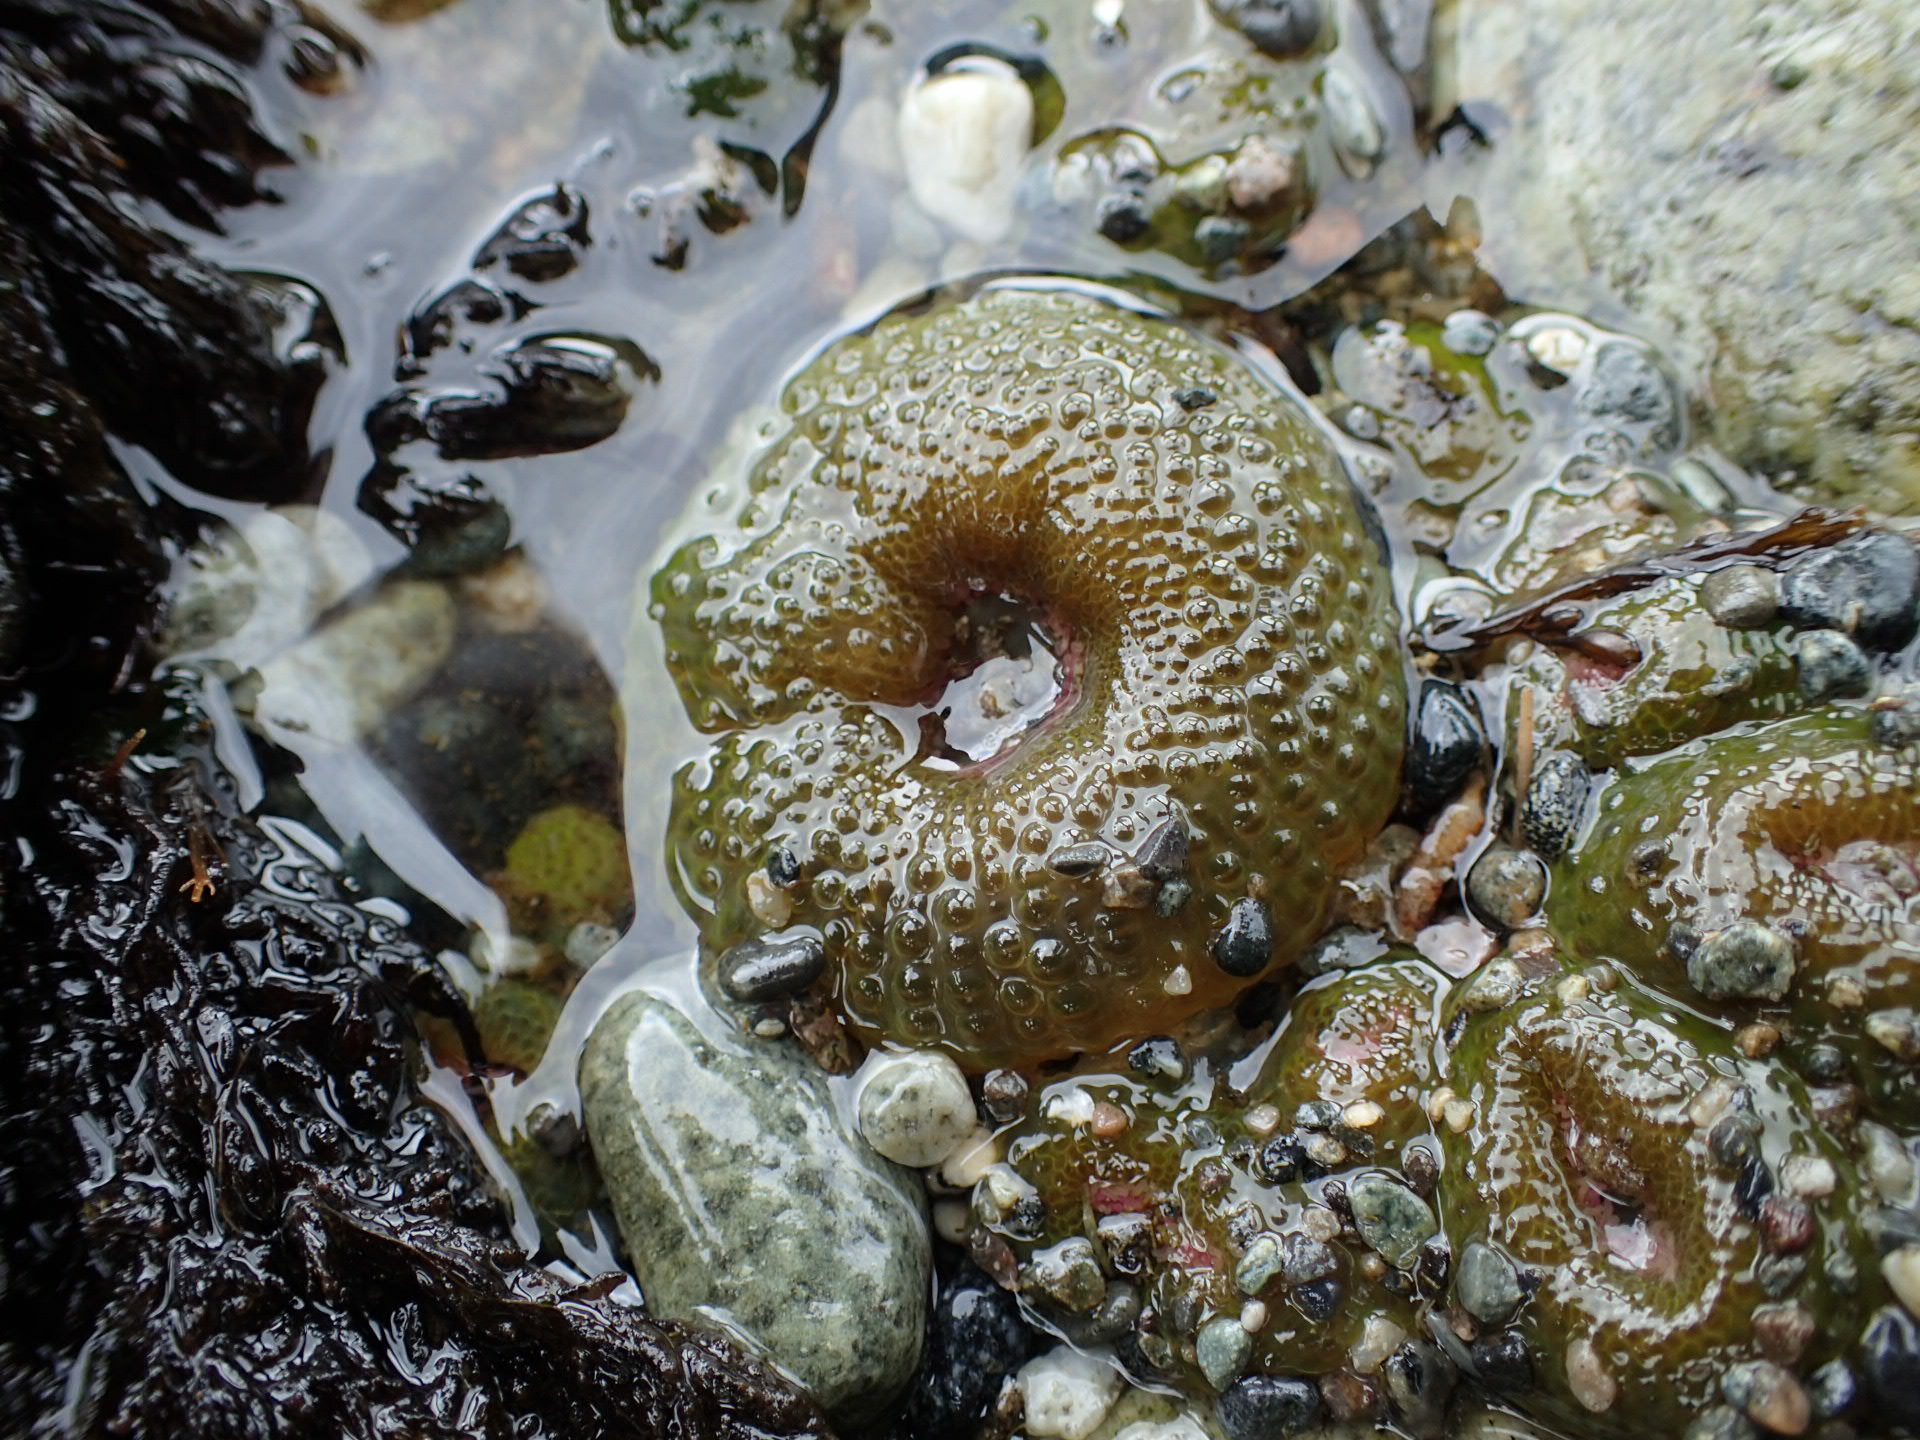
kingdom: Animalia
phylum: Cnidaria
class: Anthozoa
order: Actiniaria
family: Actiniidae
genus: Anthopleura
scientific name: Anthopleura elegantissima
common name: Clonal anemone
